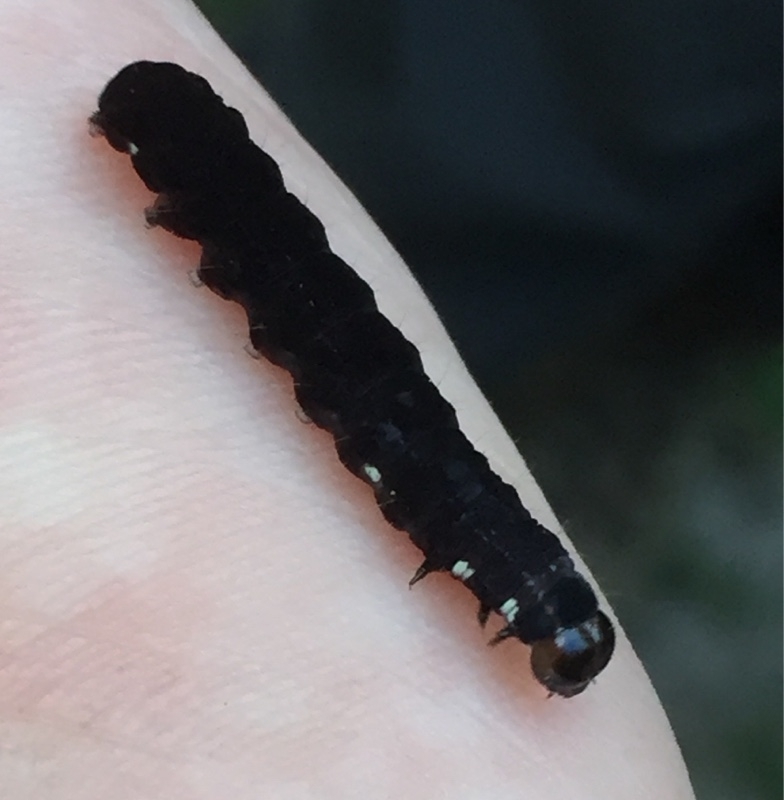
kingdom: Animalia
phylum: Arthropoda
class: Insecta
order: Lepidoptera
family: Noctuidae
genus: Eupsilia
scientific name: Eupsilia transversa
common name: Satellite
